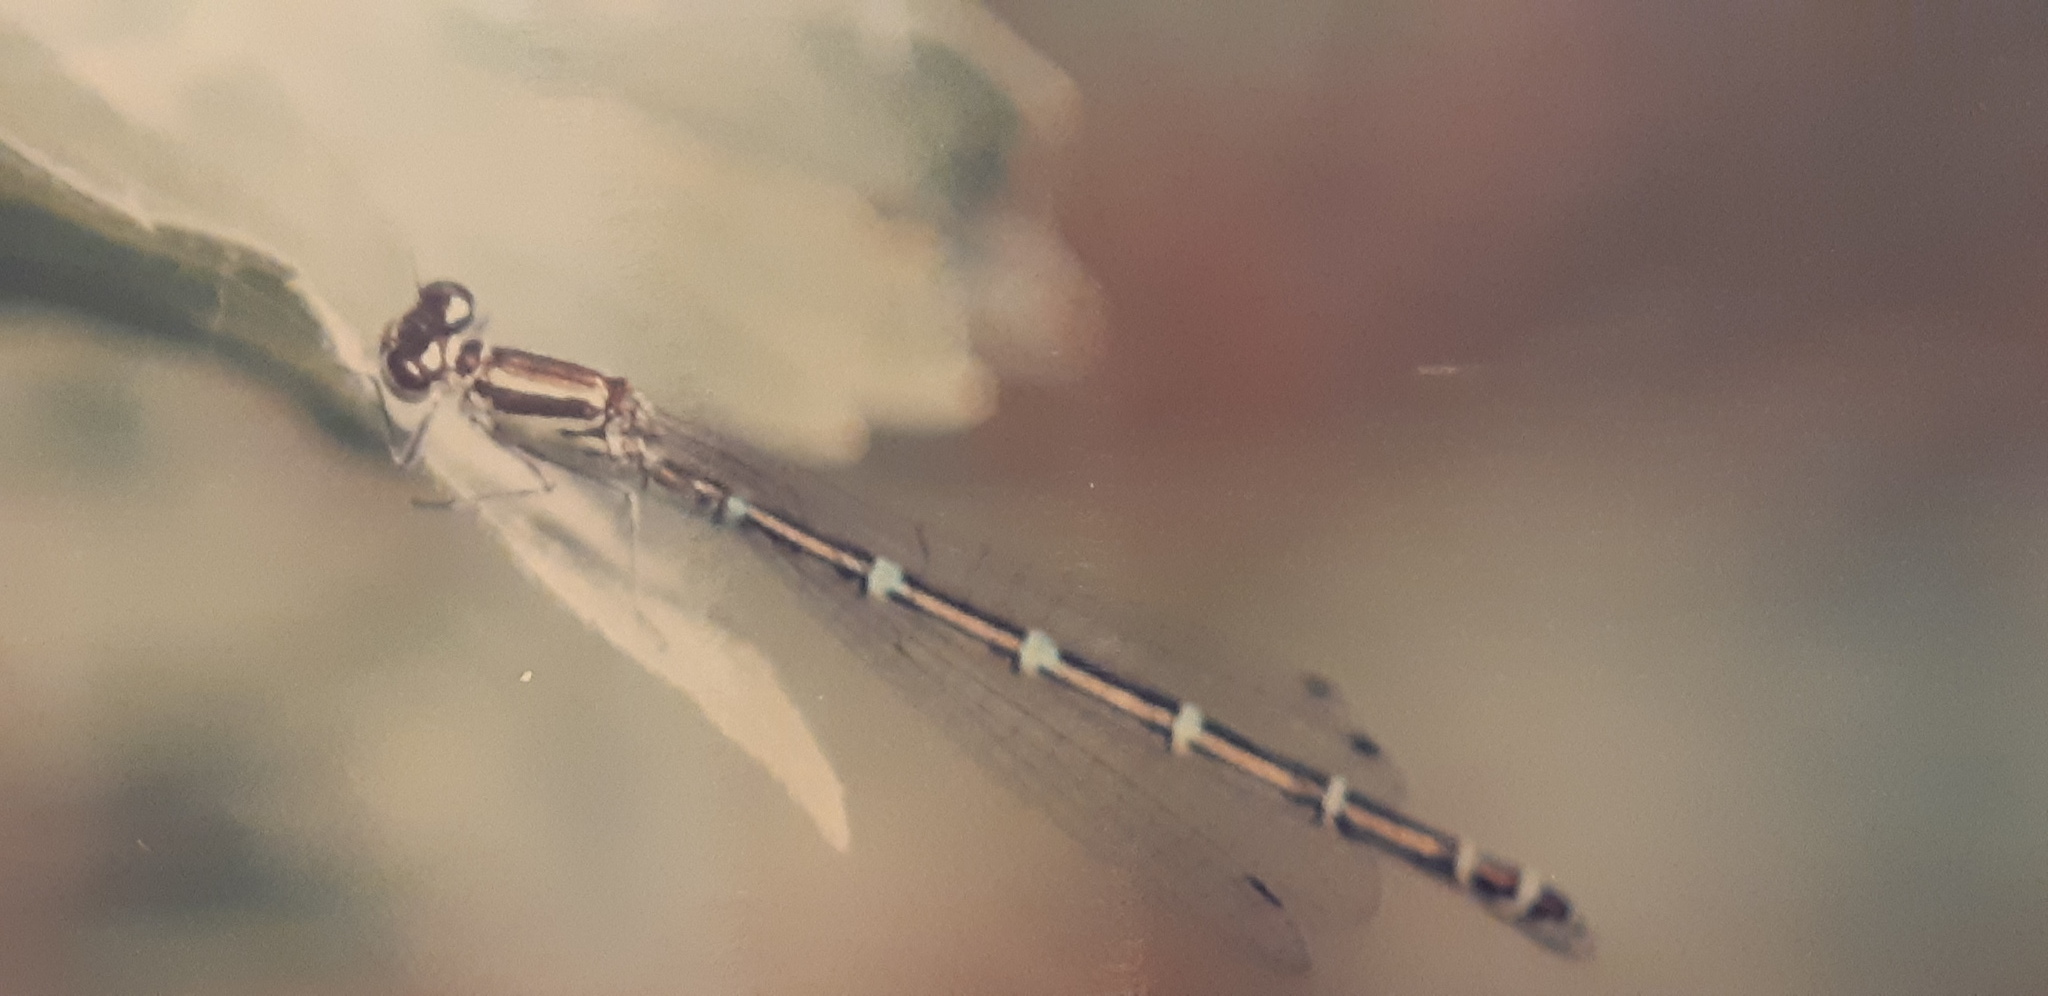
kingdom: Animalia
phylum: Arthropoda
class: Insecta
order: Odonata
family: Coenagrionidae
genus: Coenagrion
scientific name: Coenagrion puella
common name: Azure damselfly
